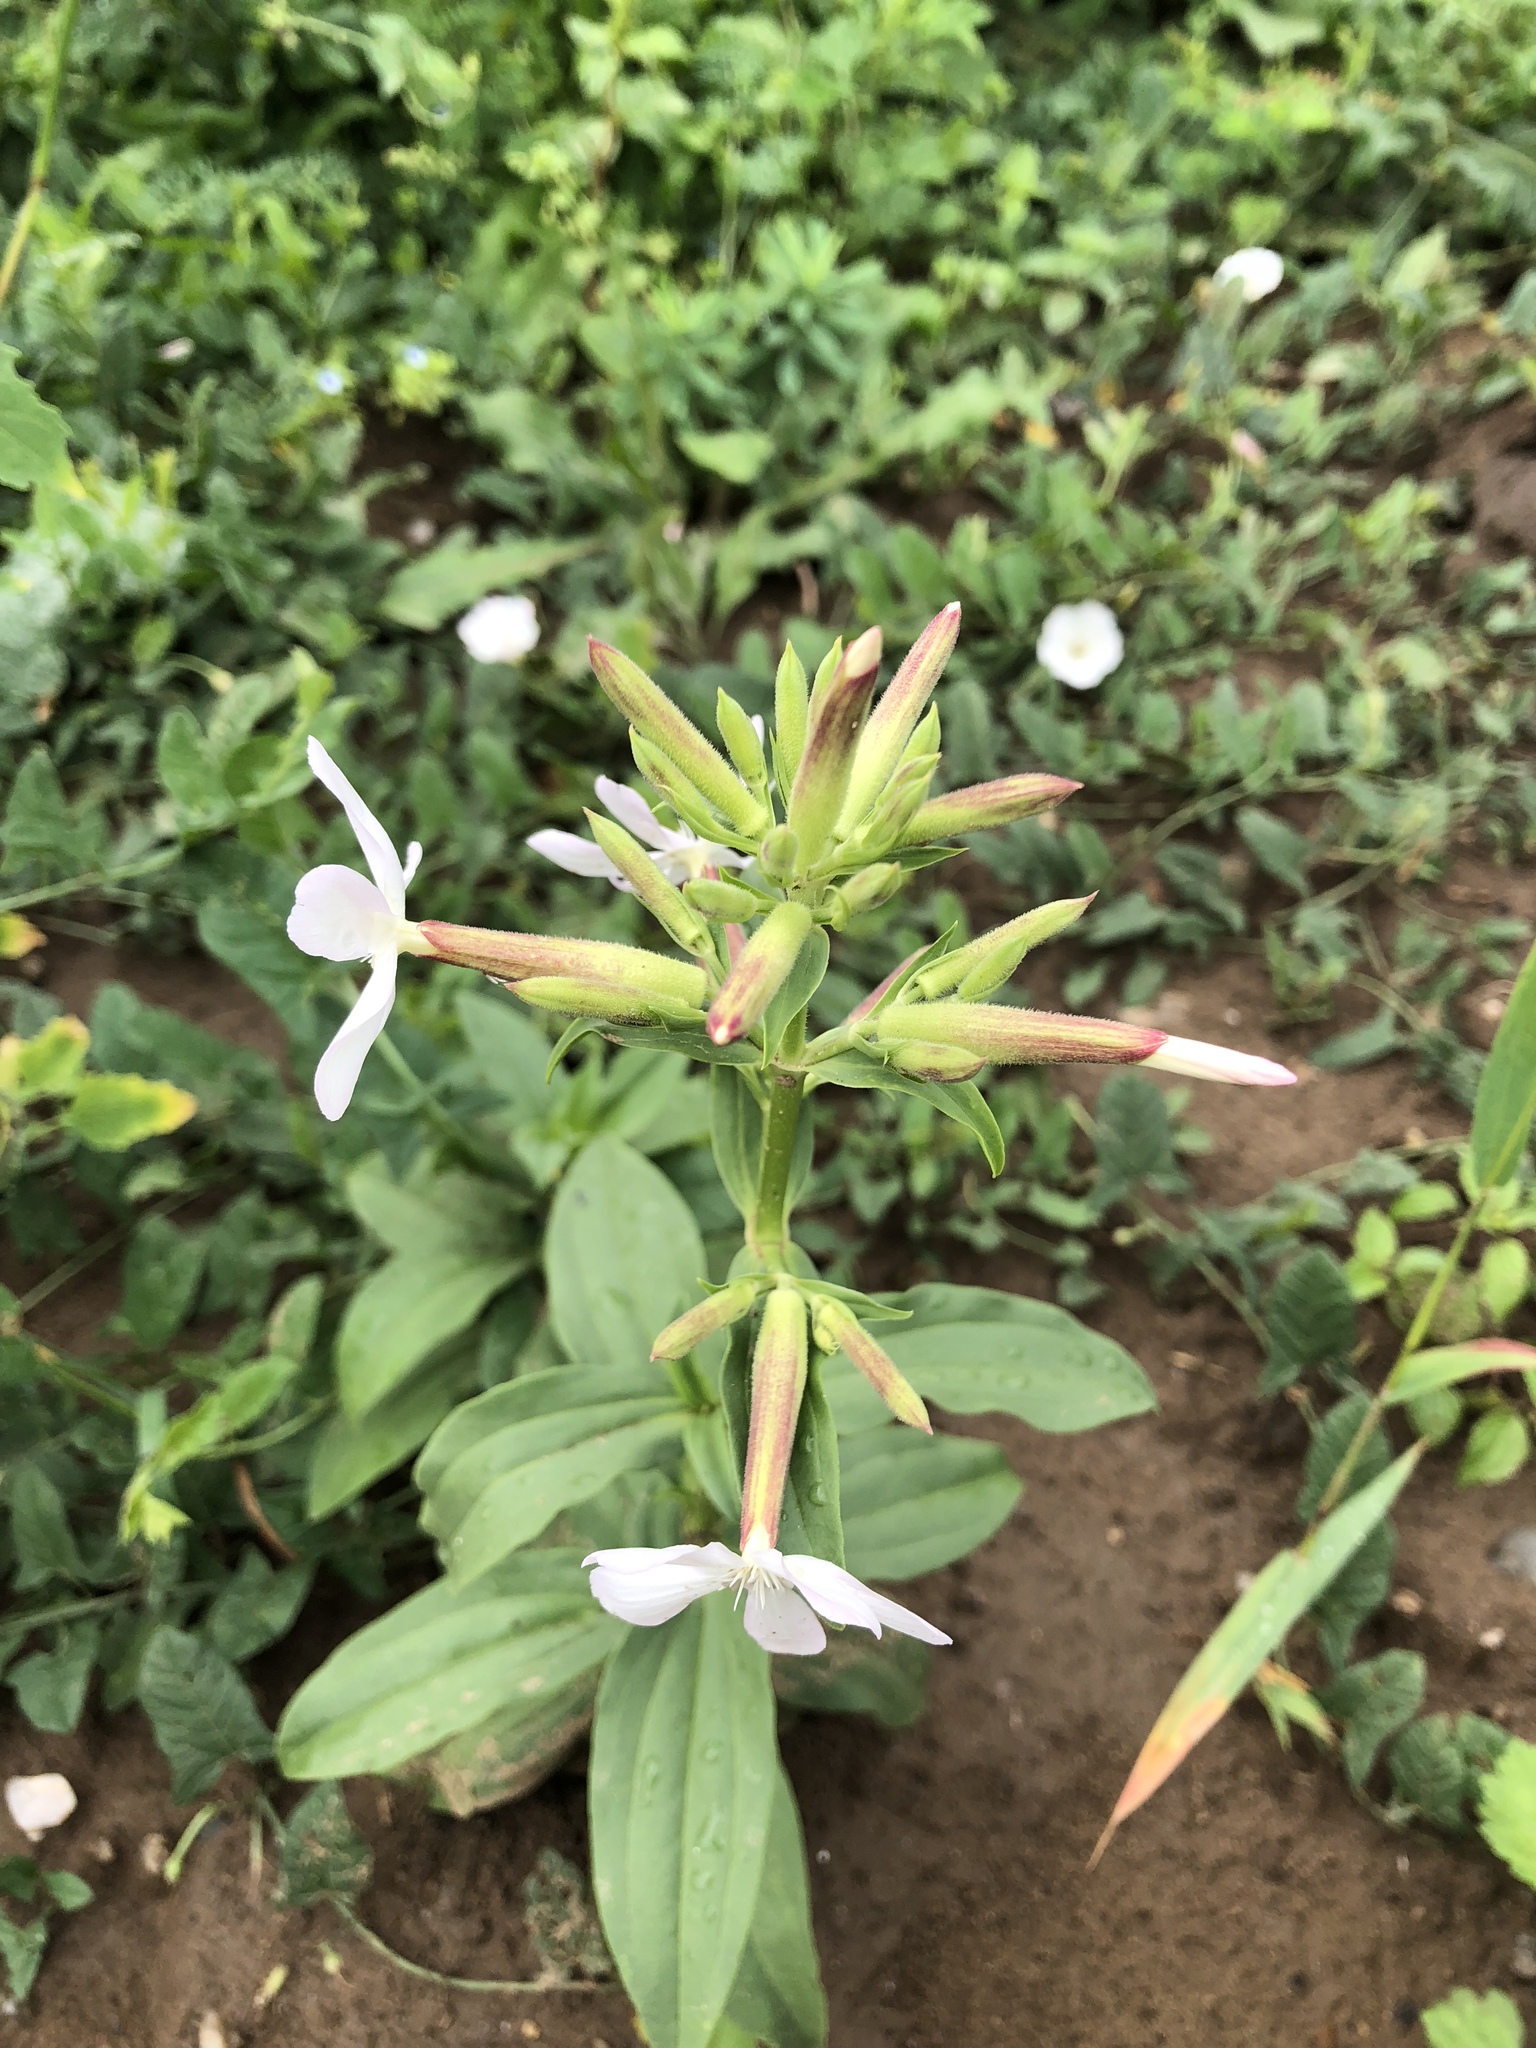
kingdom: Plantae
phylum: Tracheophyta
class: Magnoliopsida
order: Caryophyllales
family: Caryophyllaceae
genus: Saponaria
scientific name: Saponaria officinalis
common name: Soapwort
